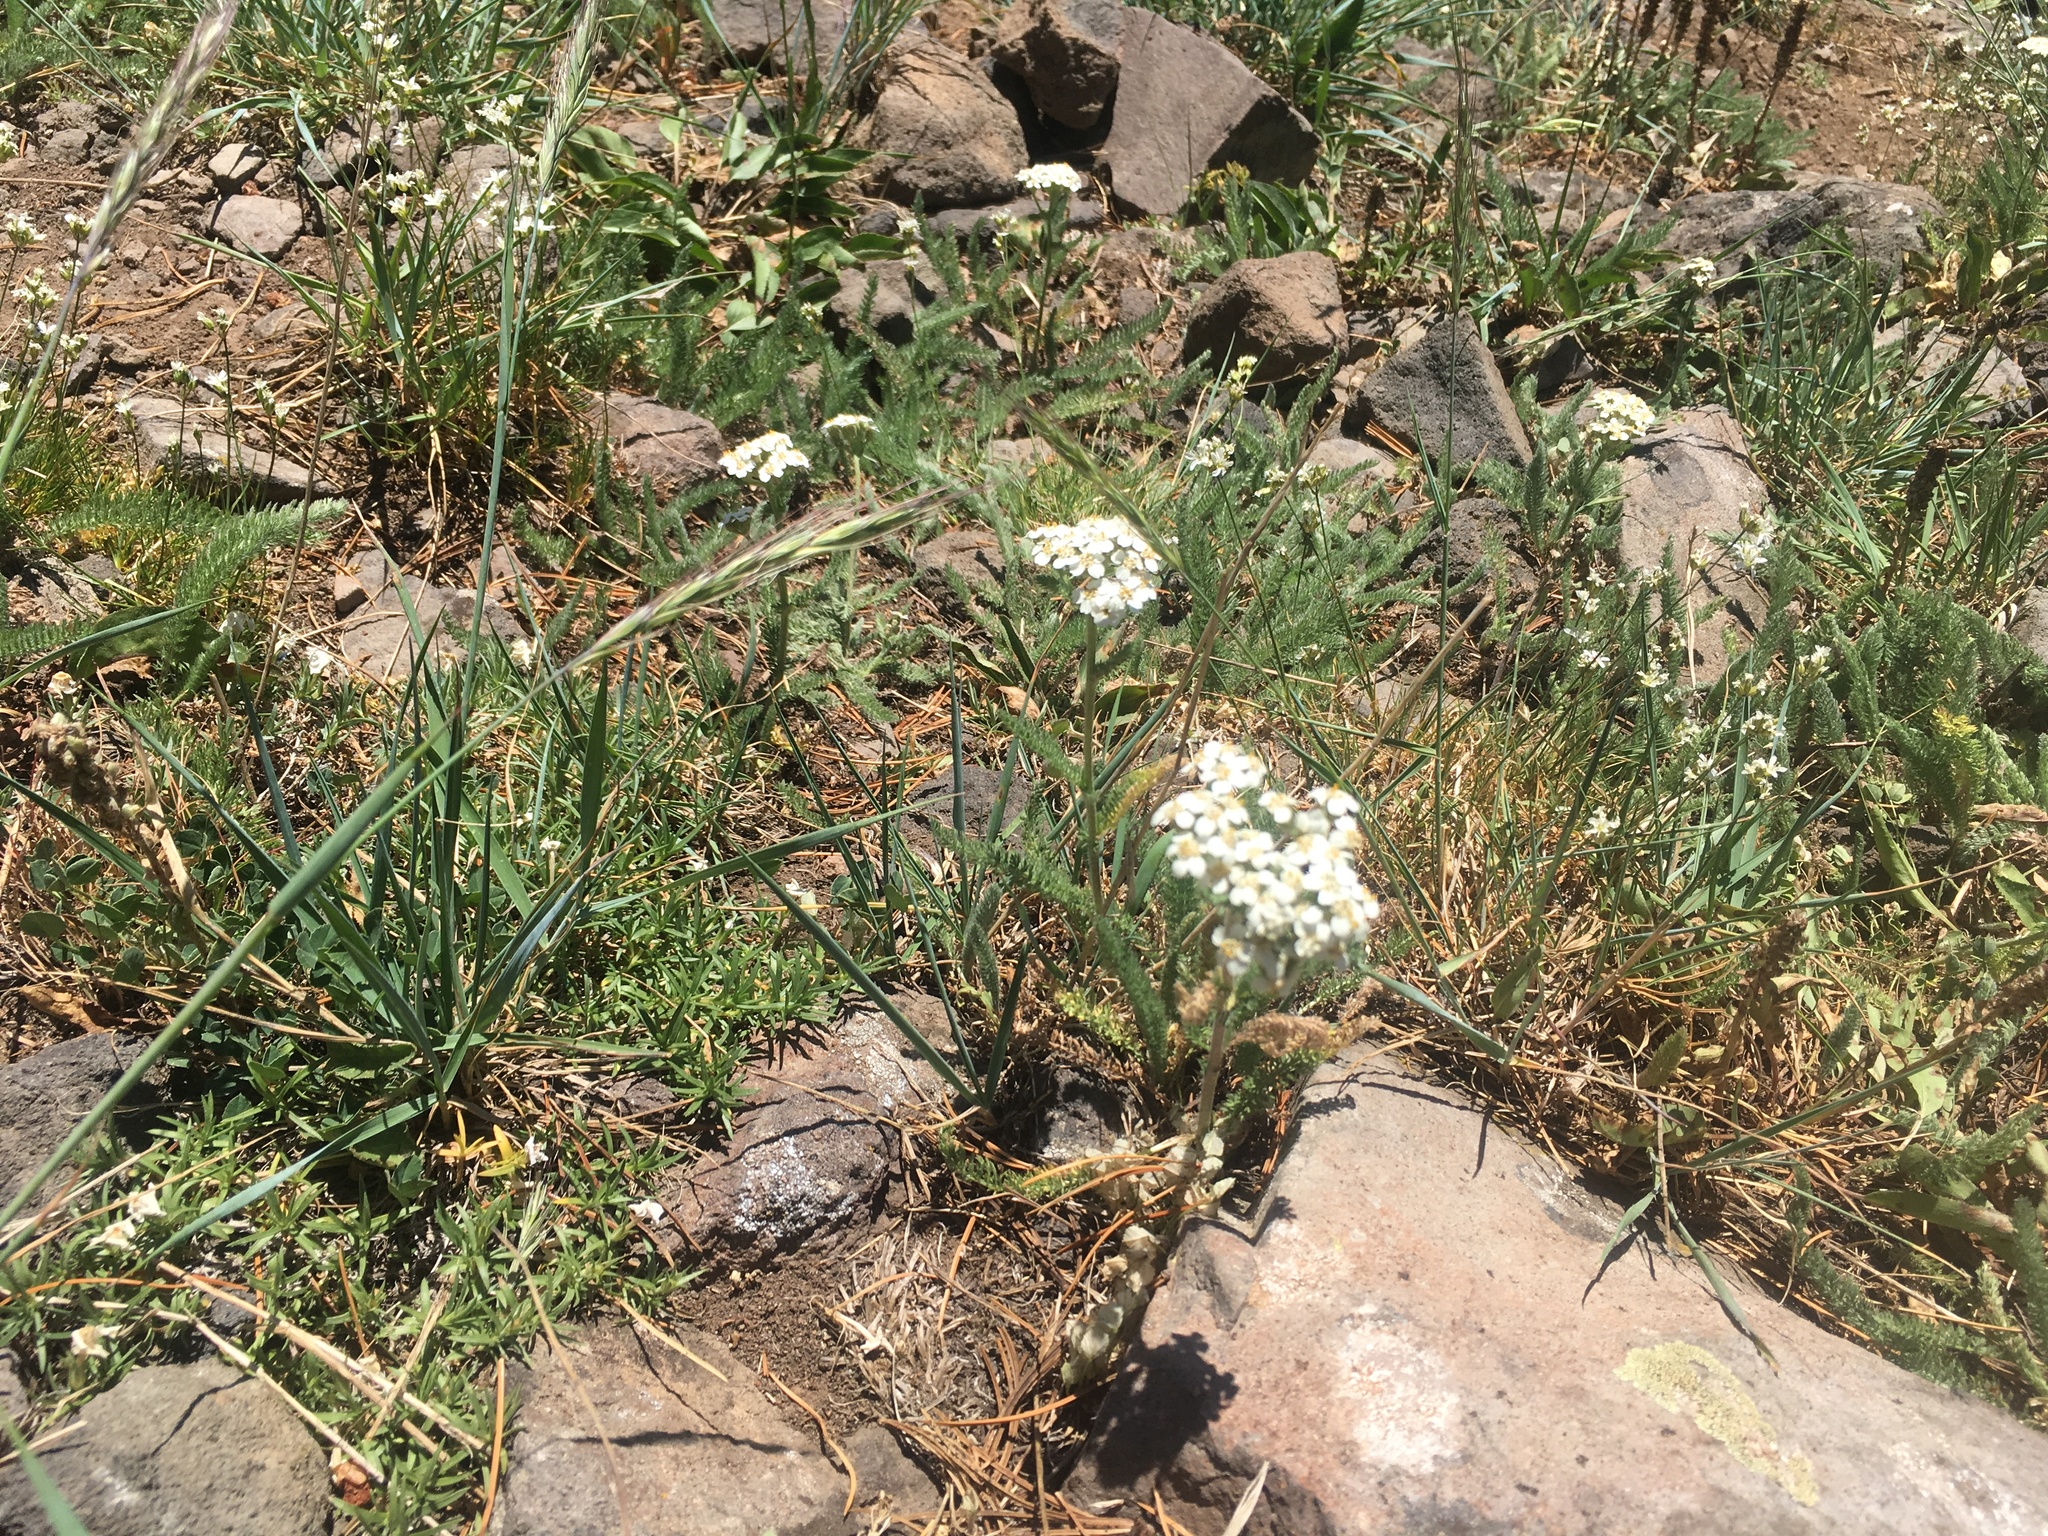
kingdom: Plantae
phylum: Tracheophyta
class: Magnoliopsida
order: Asterales
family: Asteraceae
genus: Achillea
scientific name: Achillea millefolium
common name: Yarrow
